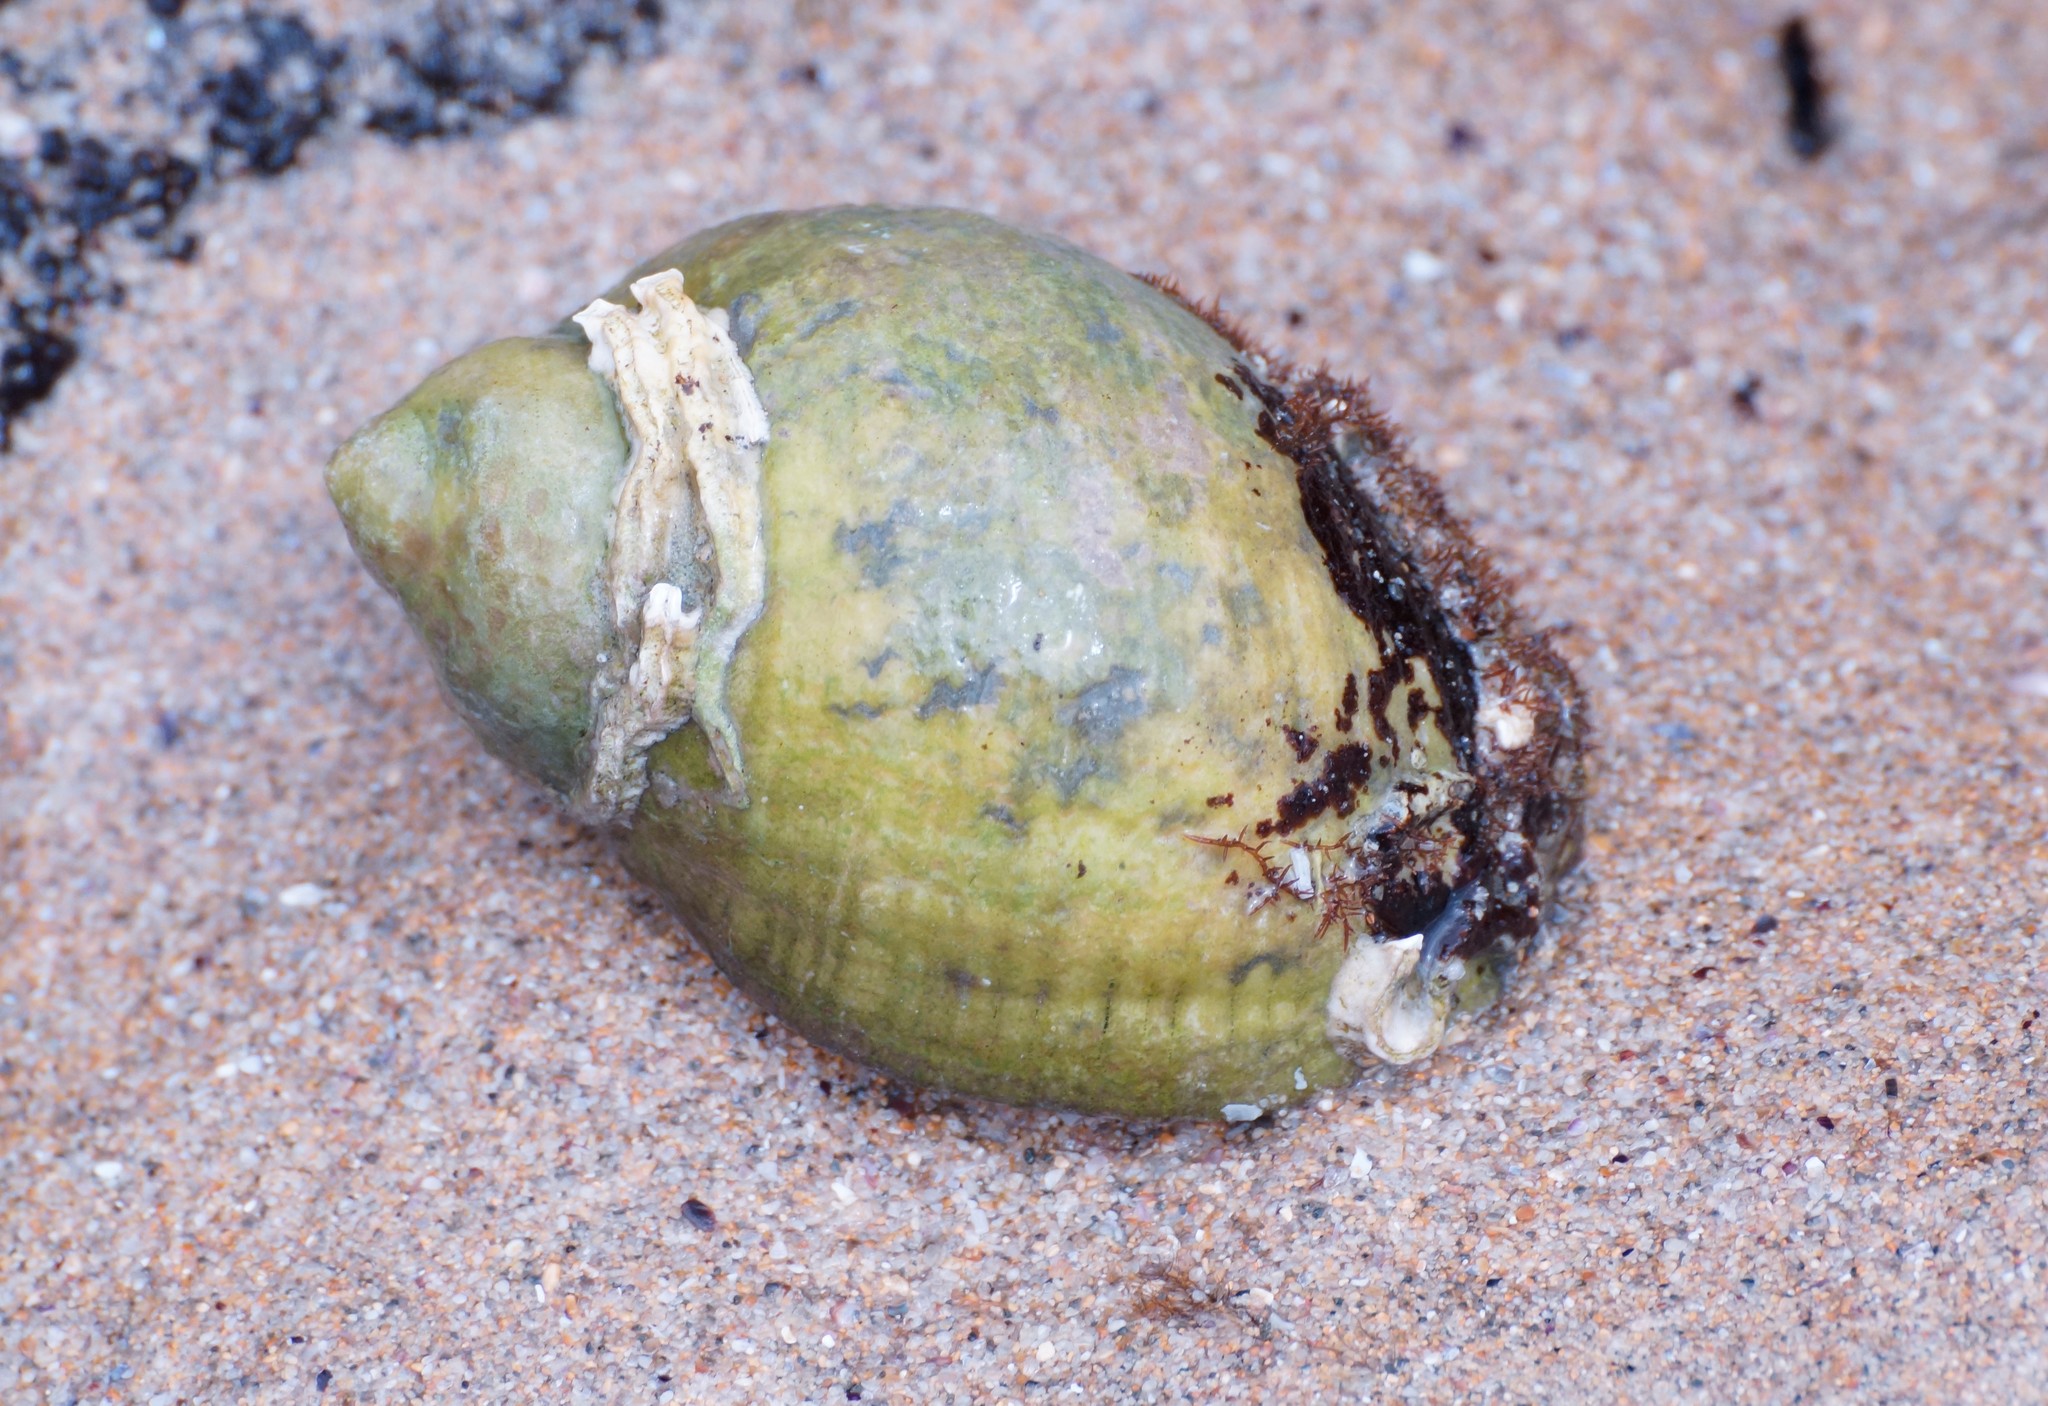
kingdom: Animalia
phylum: Mollusca
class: Gastropoda
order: Neogastropoda
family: Muricidae
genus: Dicathais
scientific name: Dicathais orbita
